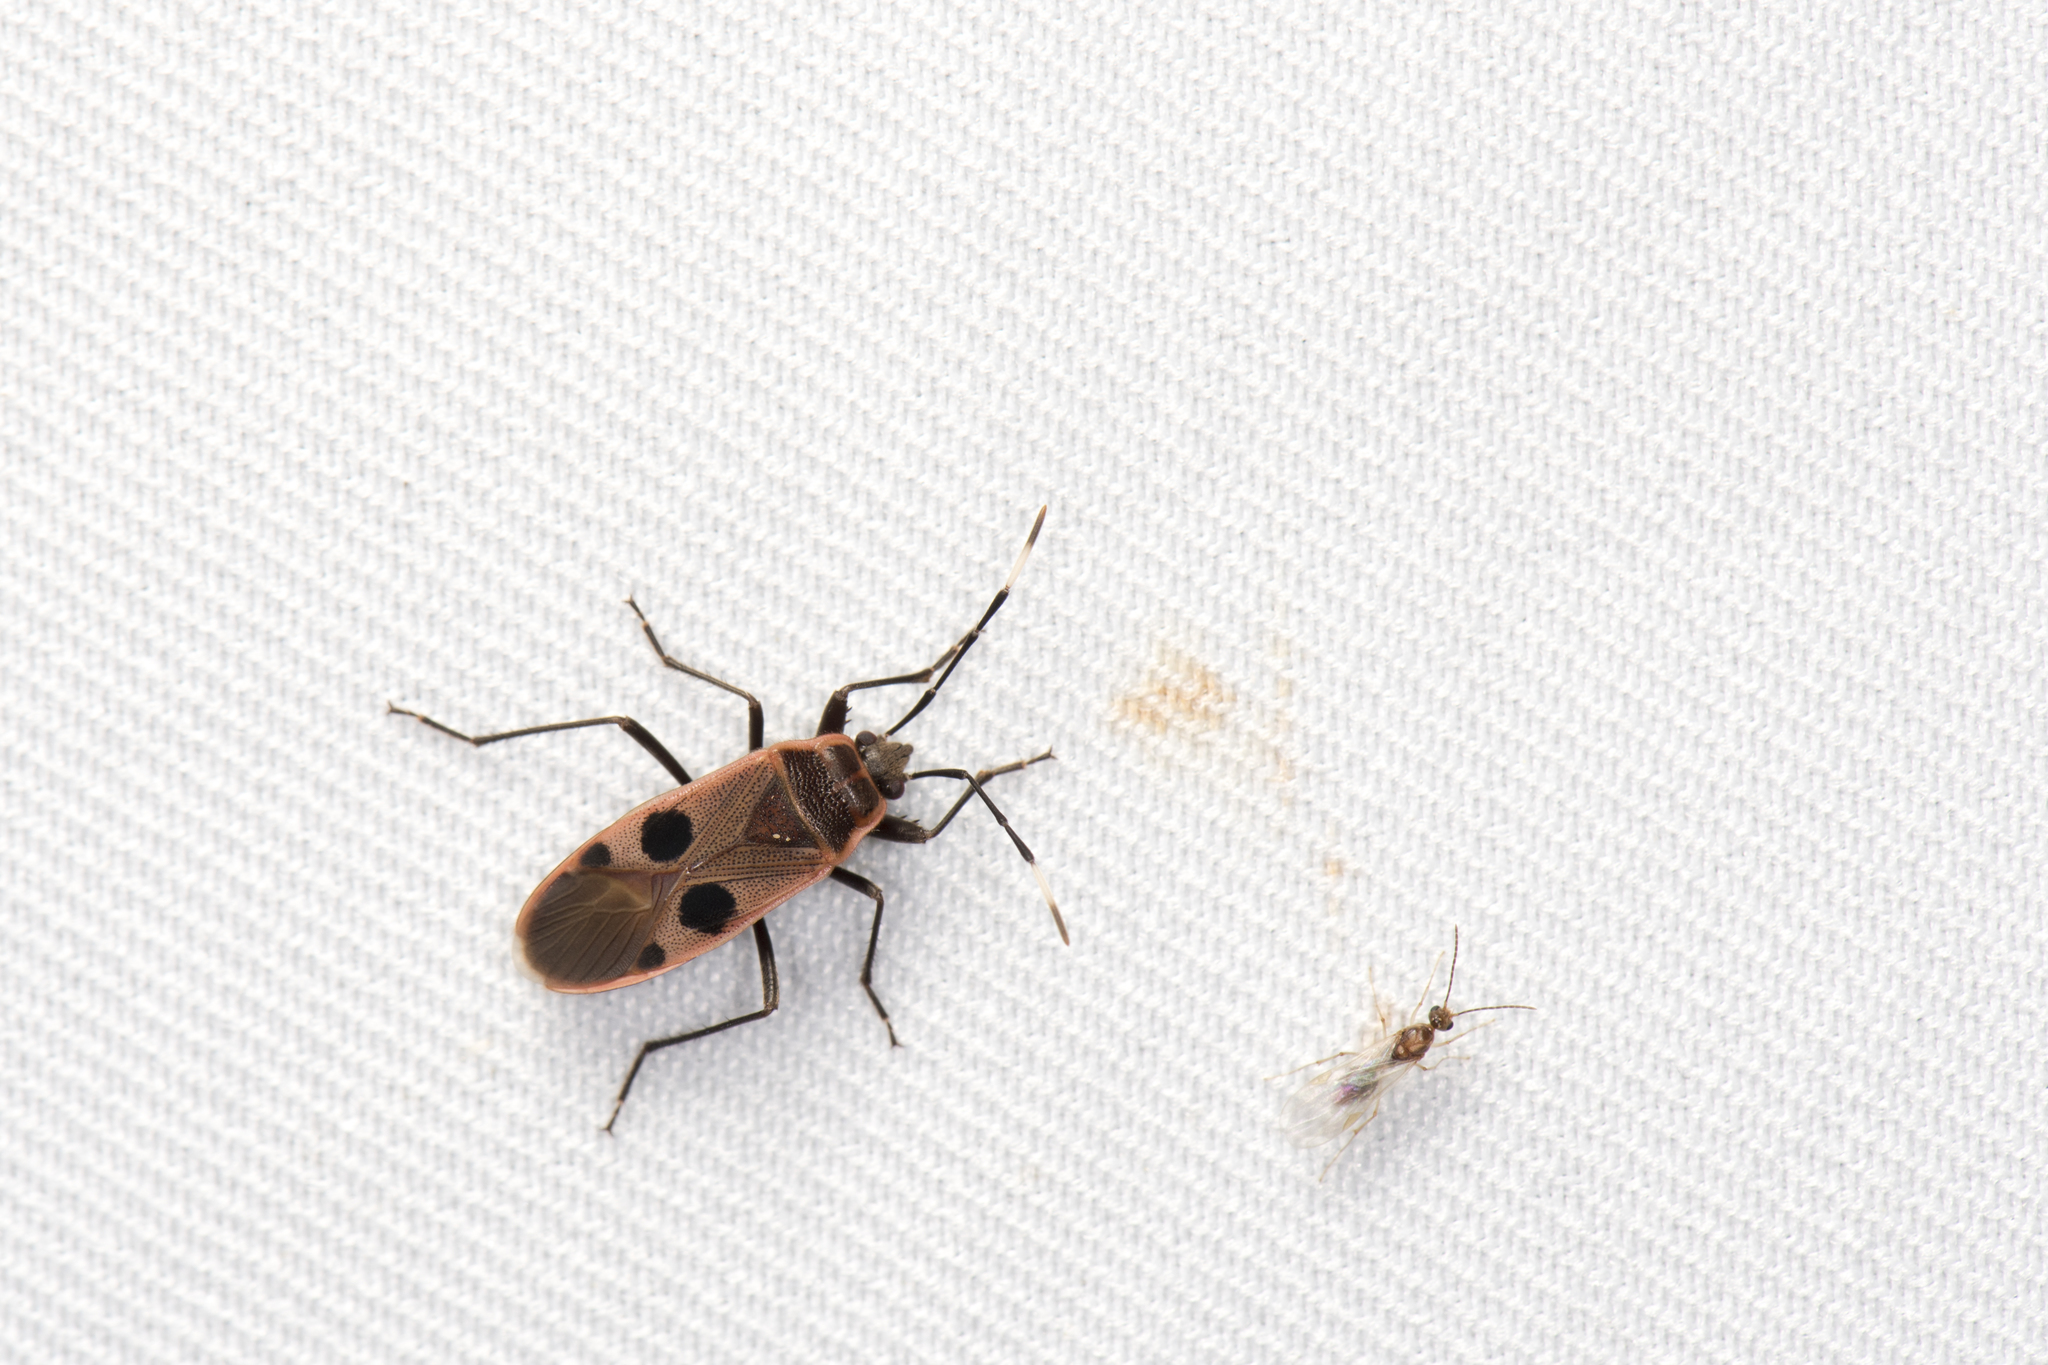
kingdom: Animalia
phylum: Arthropoda
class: Insecta
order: Hemiptera
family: Largidae
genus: Physopelta
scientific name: Physopelta fusciscutellata
